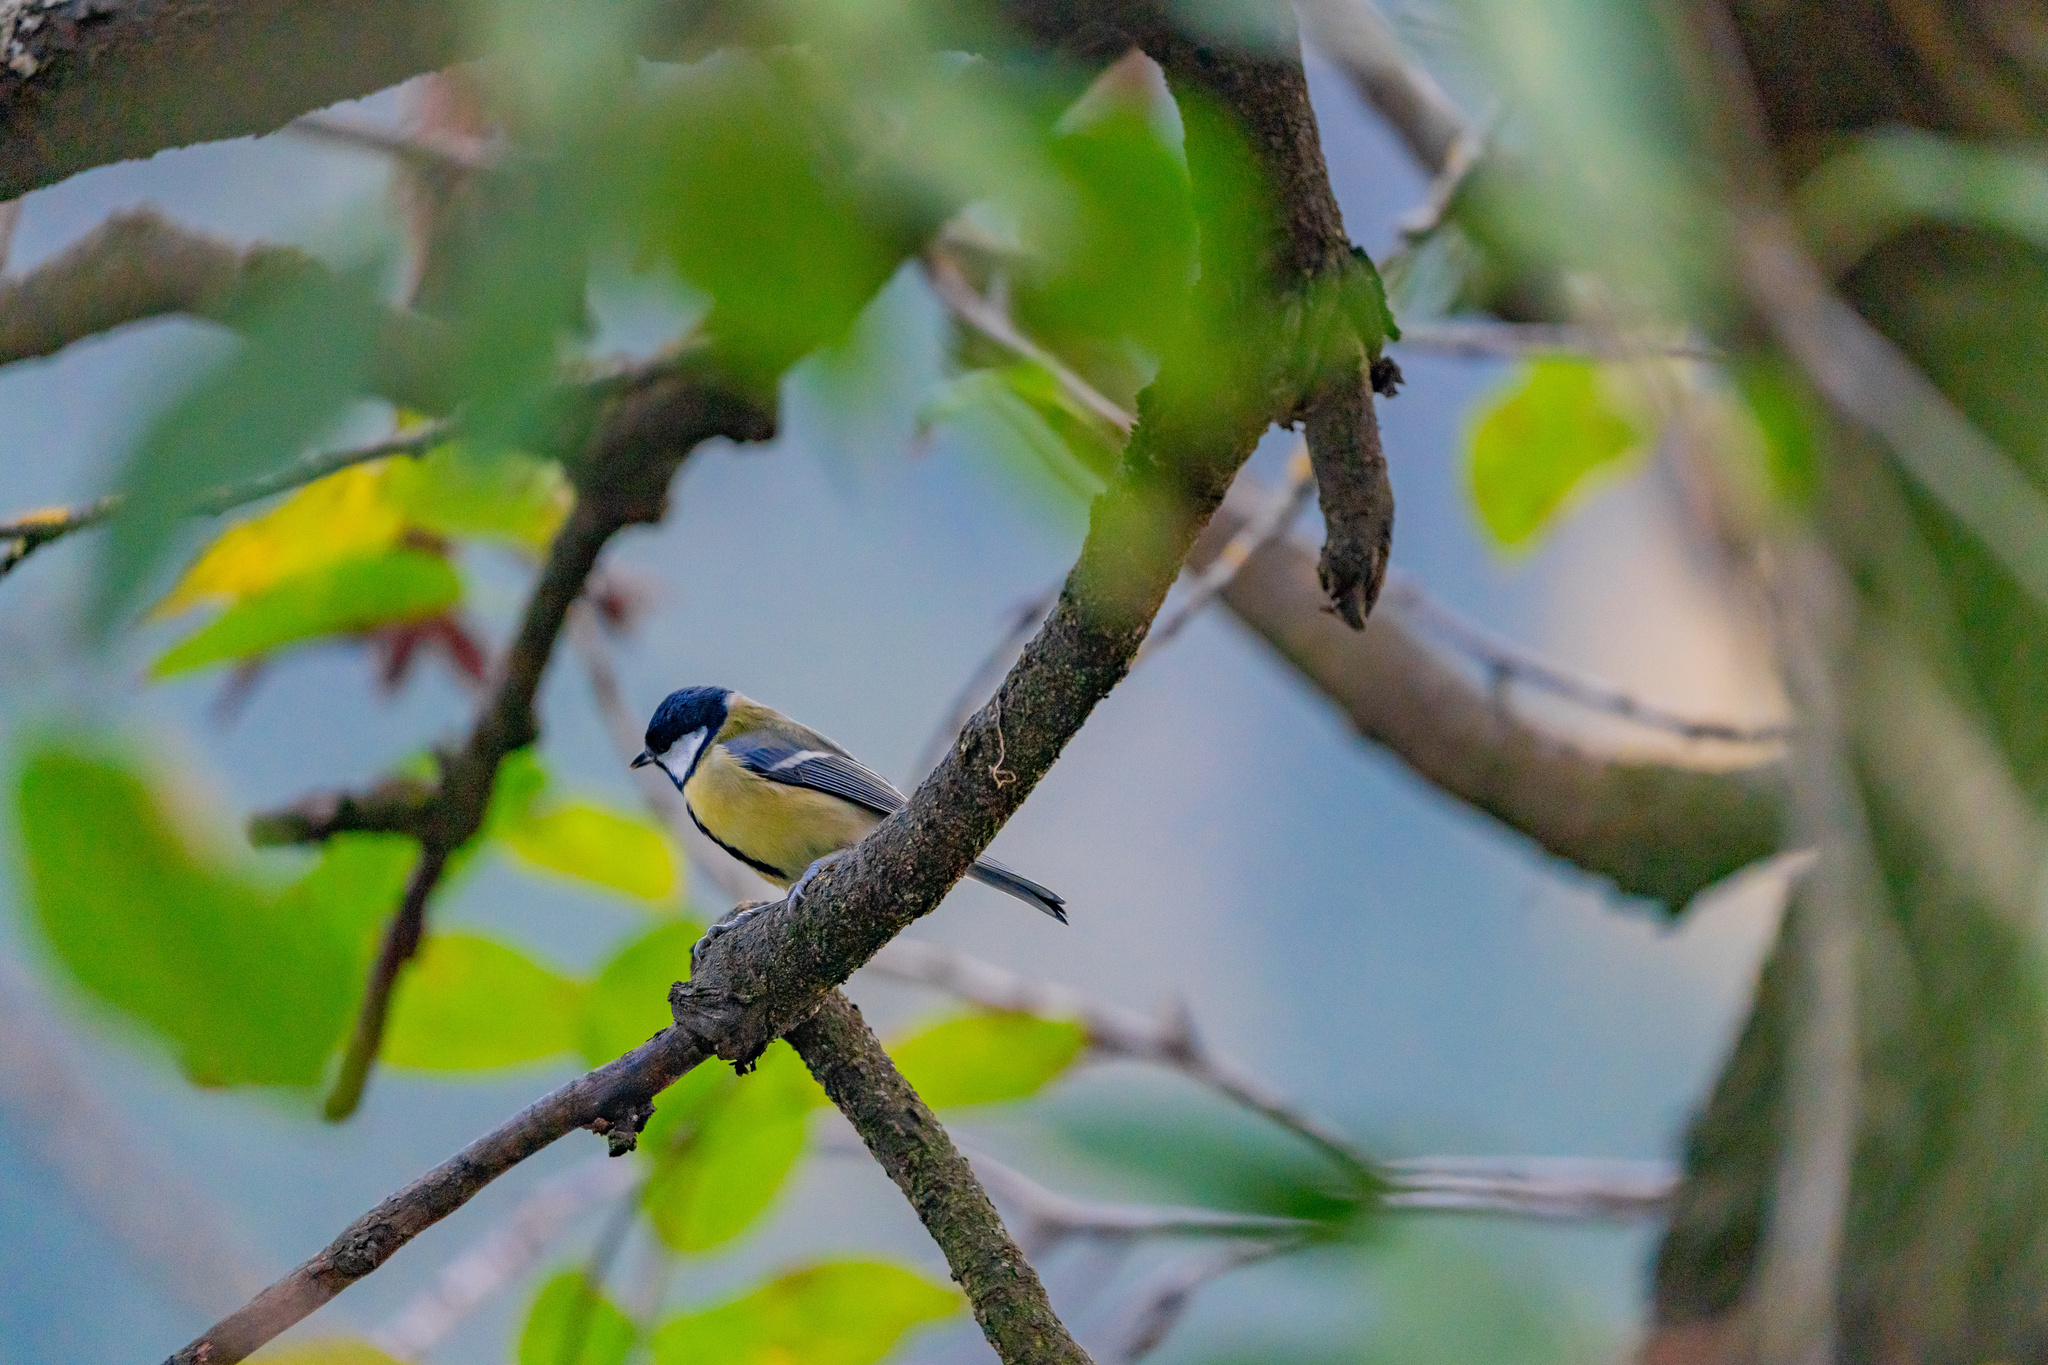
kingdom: Animalia
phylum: Chordata
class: Aves
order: Passeriformes
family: Paridae
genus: Parus
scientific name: Parus major
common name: Great tit
